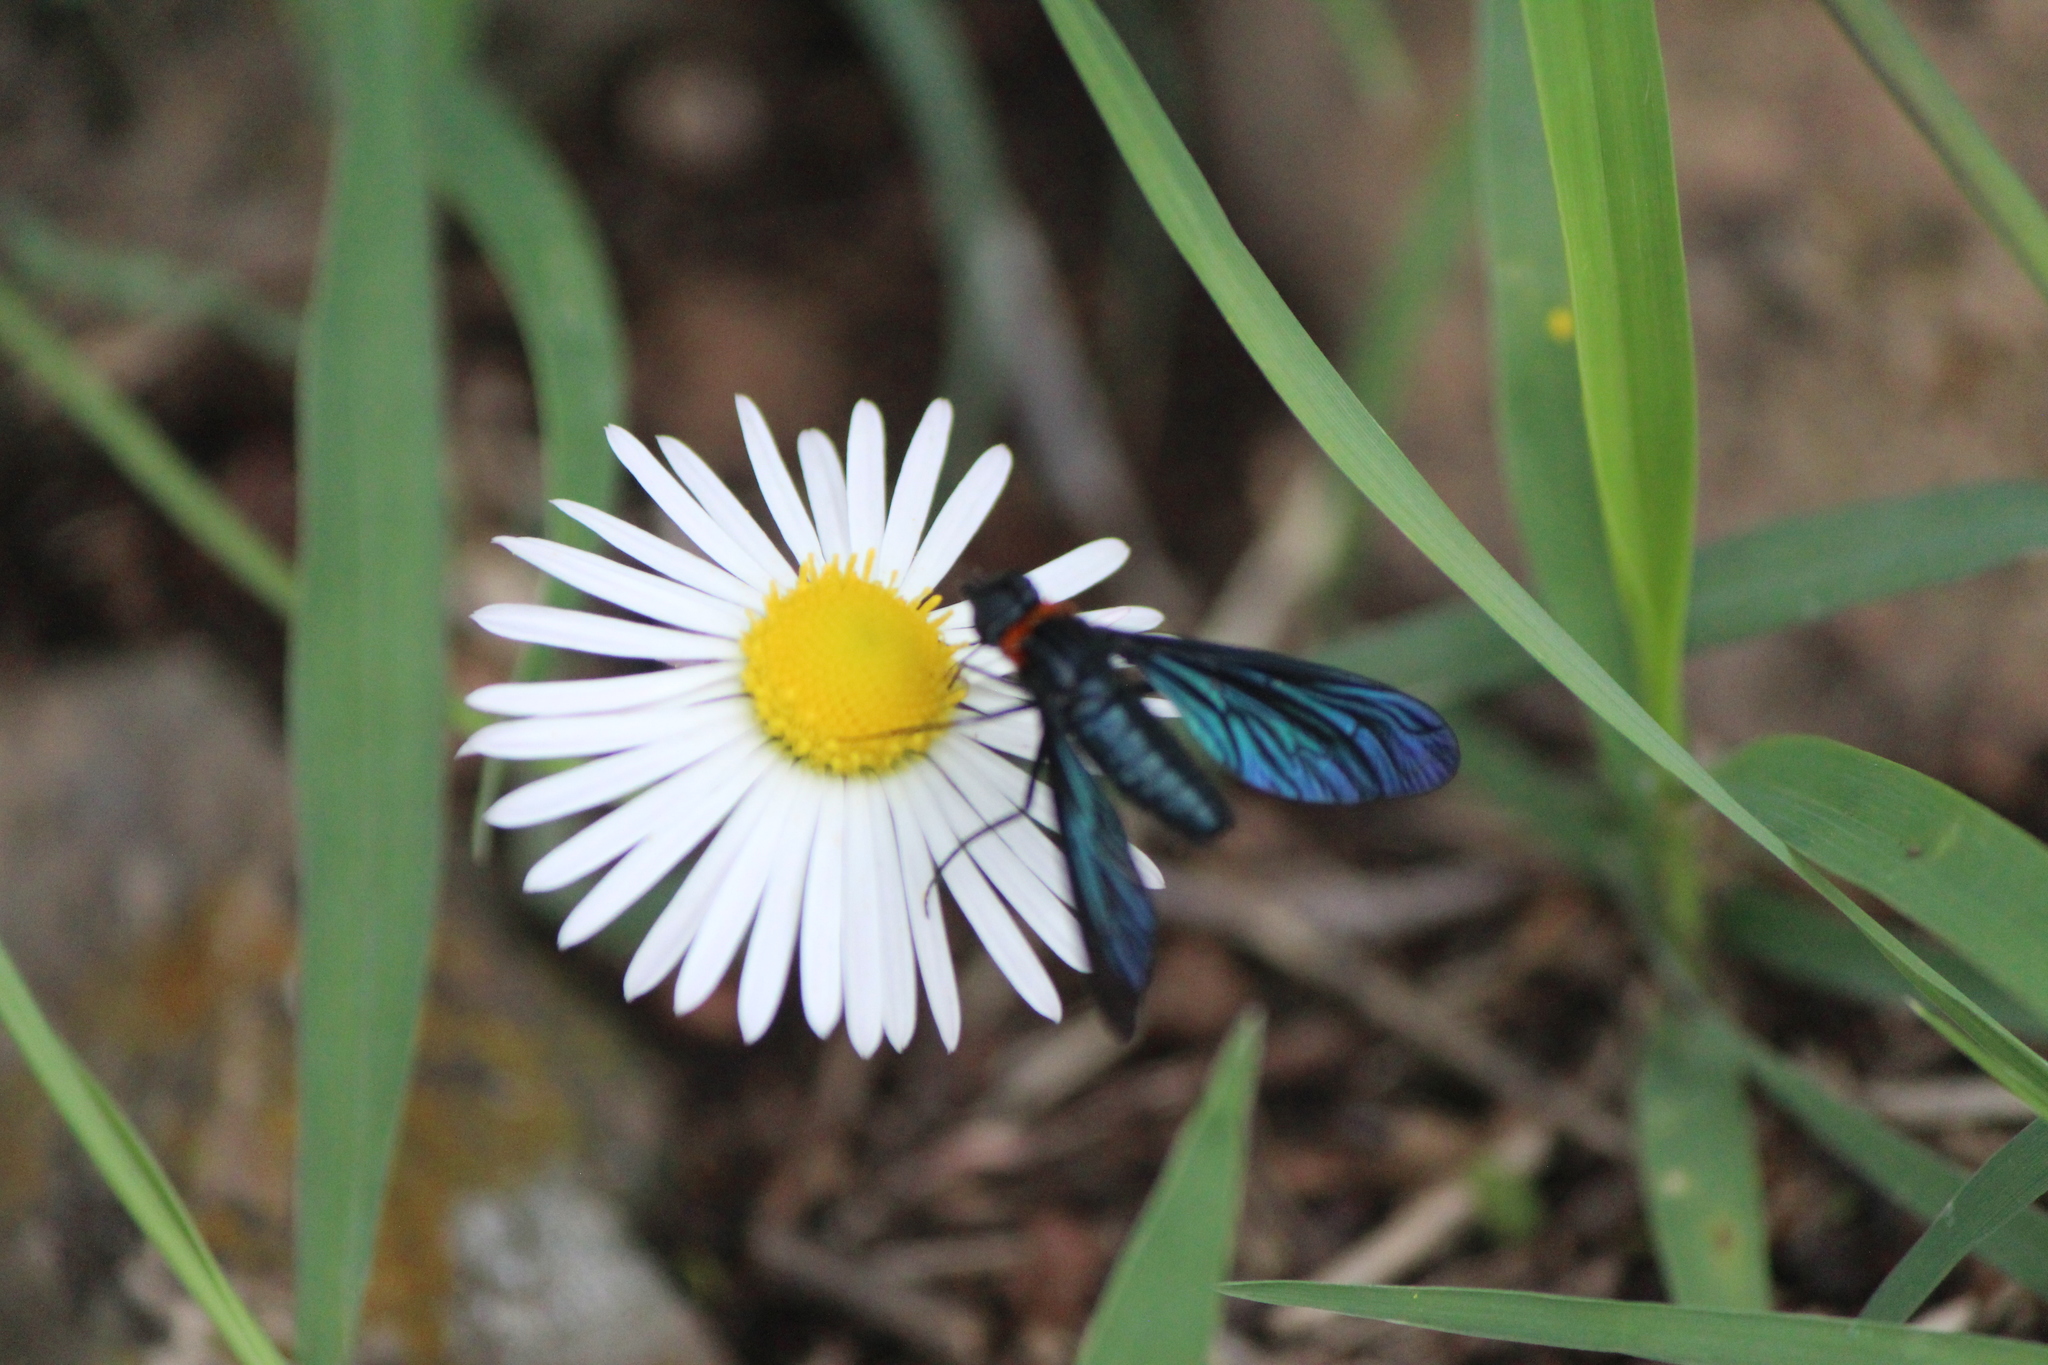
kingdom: Animalia
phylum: Arthropoda
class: Insecta
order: Diptera
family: Bombyliidae
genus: Cyananthrax
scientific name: Cyananthrax cyanoptera
